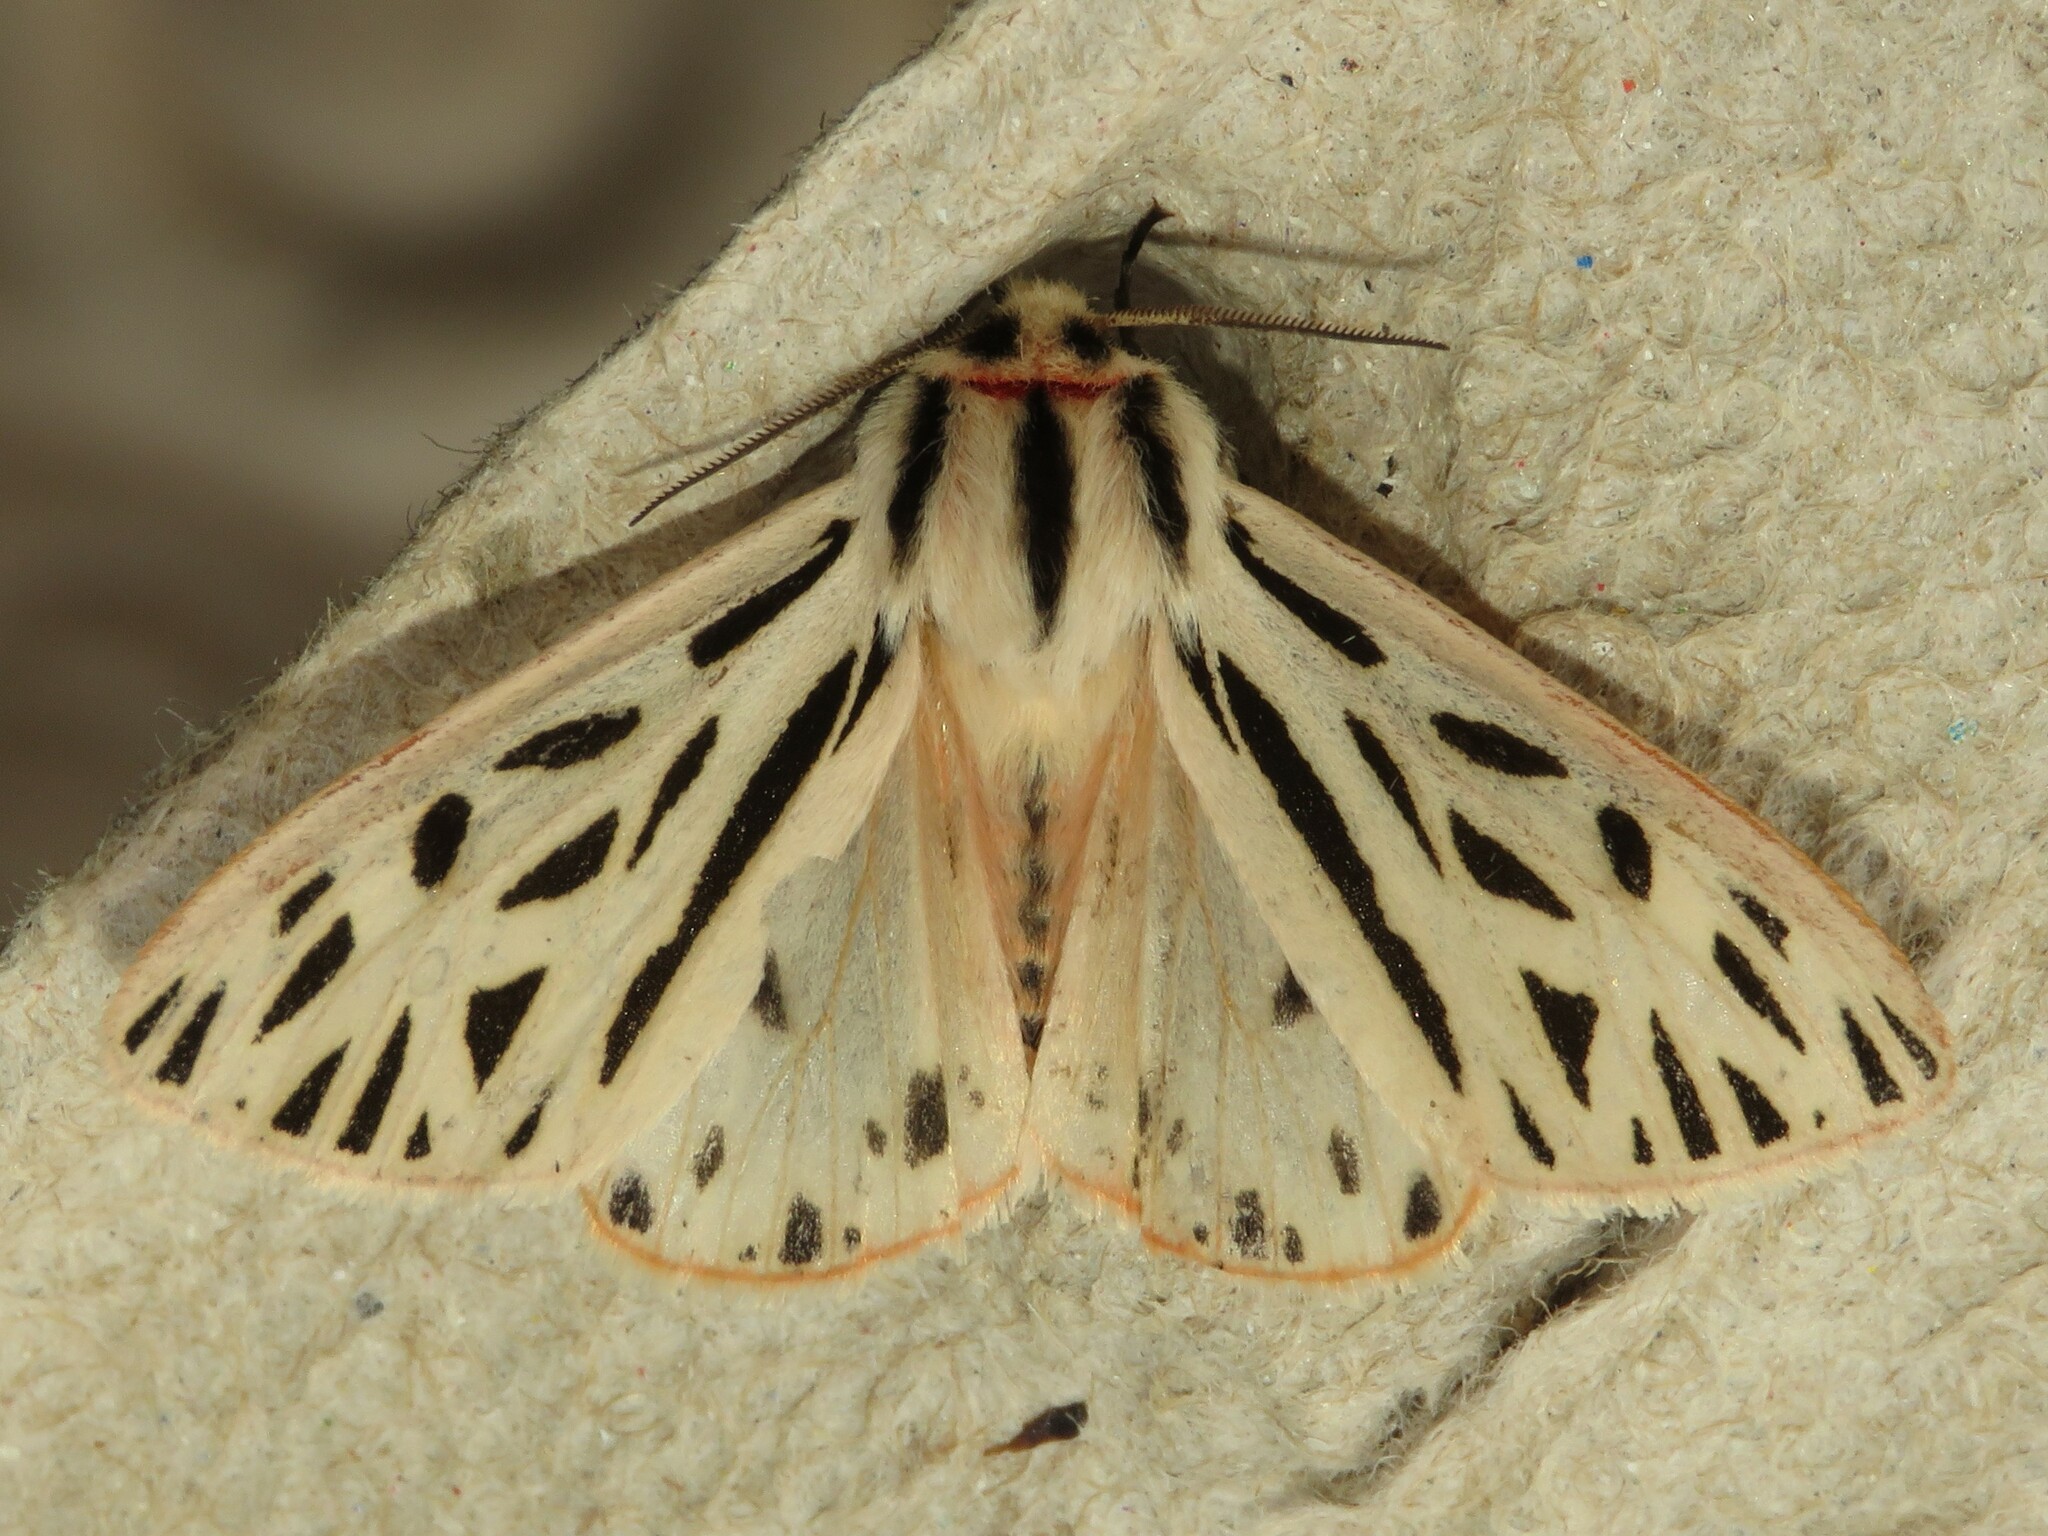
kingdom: Animalia
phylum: Arthropoda
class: Insecta
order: Lepidoptera
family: Erebidae
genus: Apantesis
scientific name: Apantesis arge
